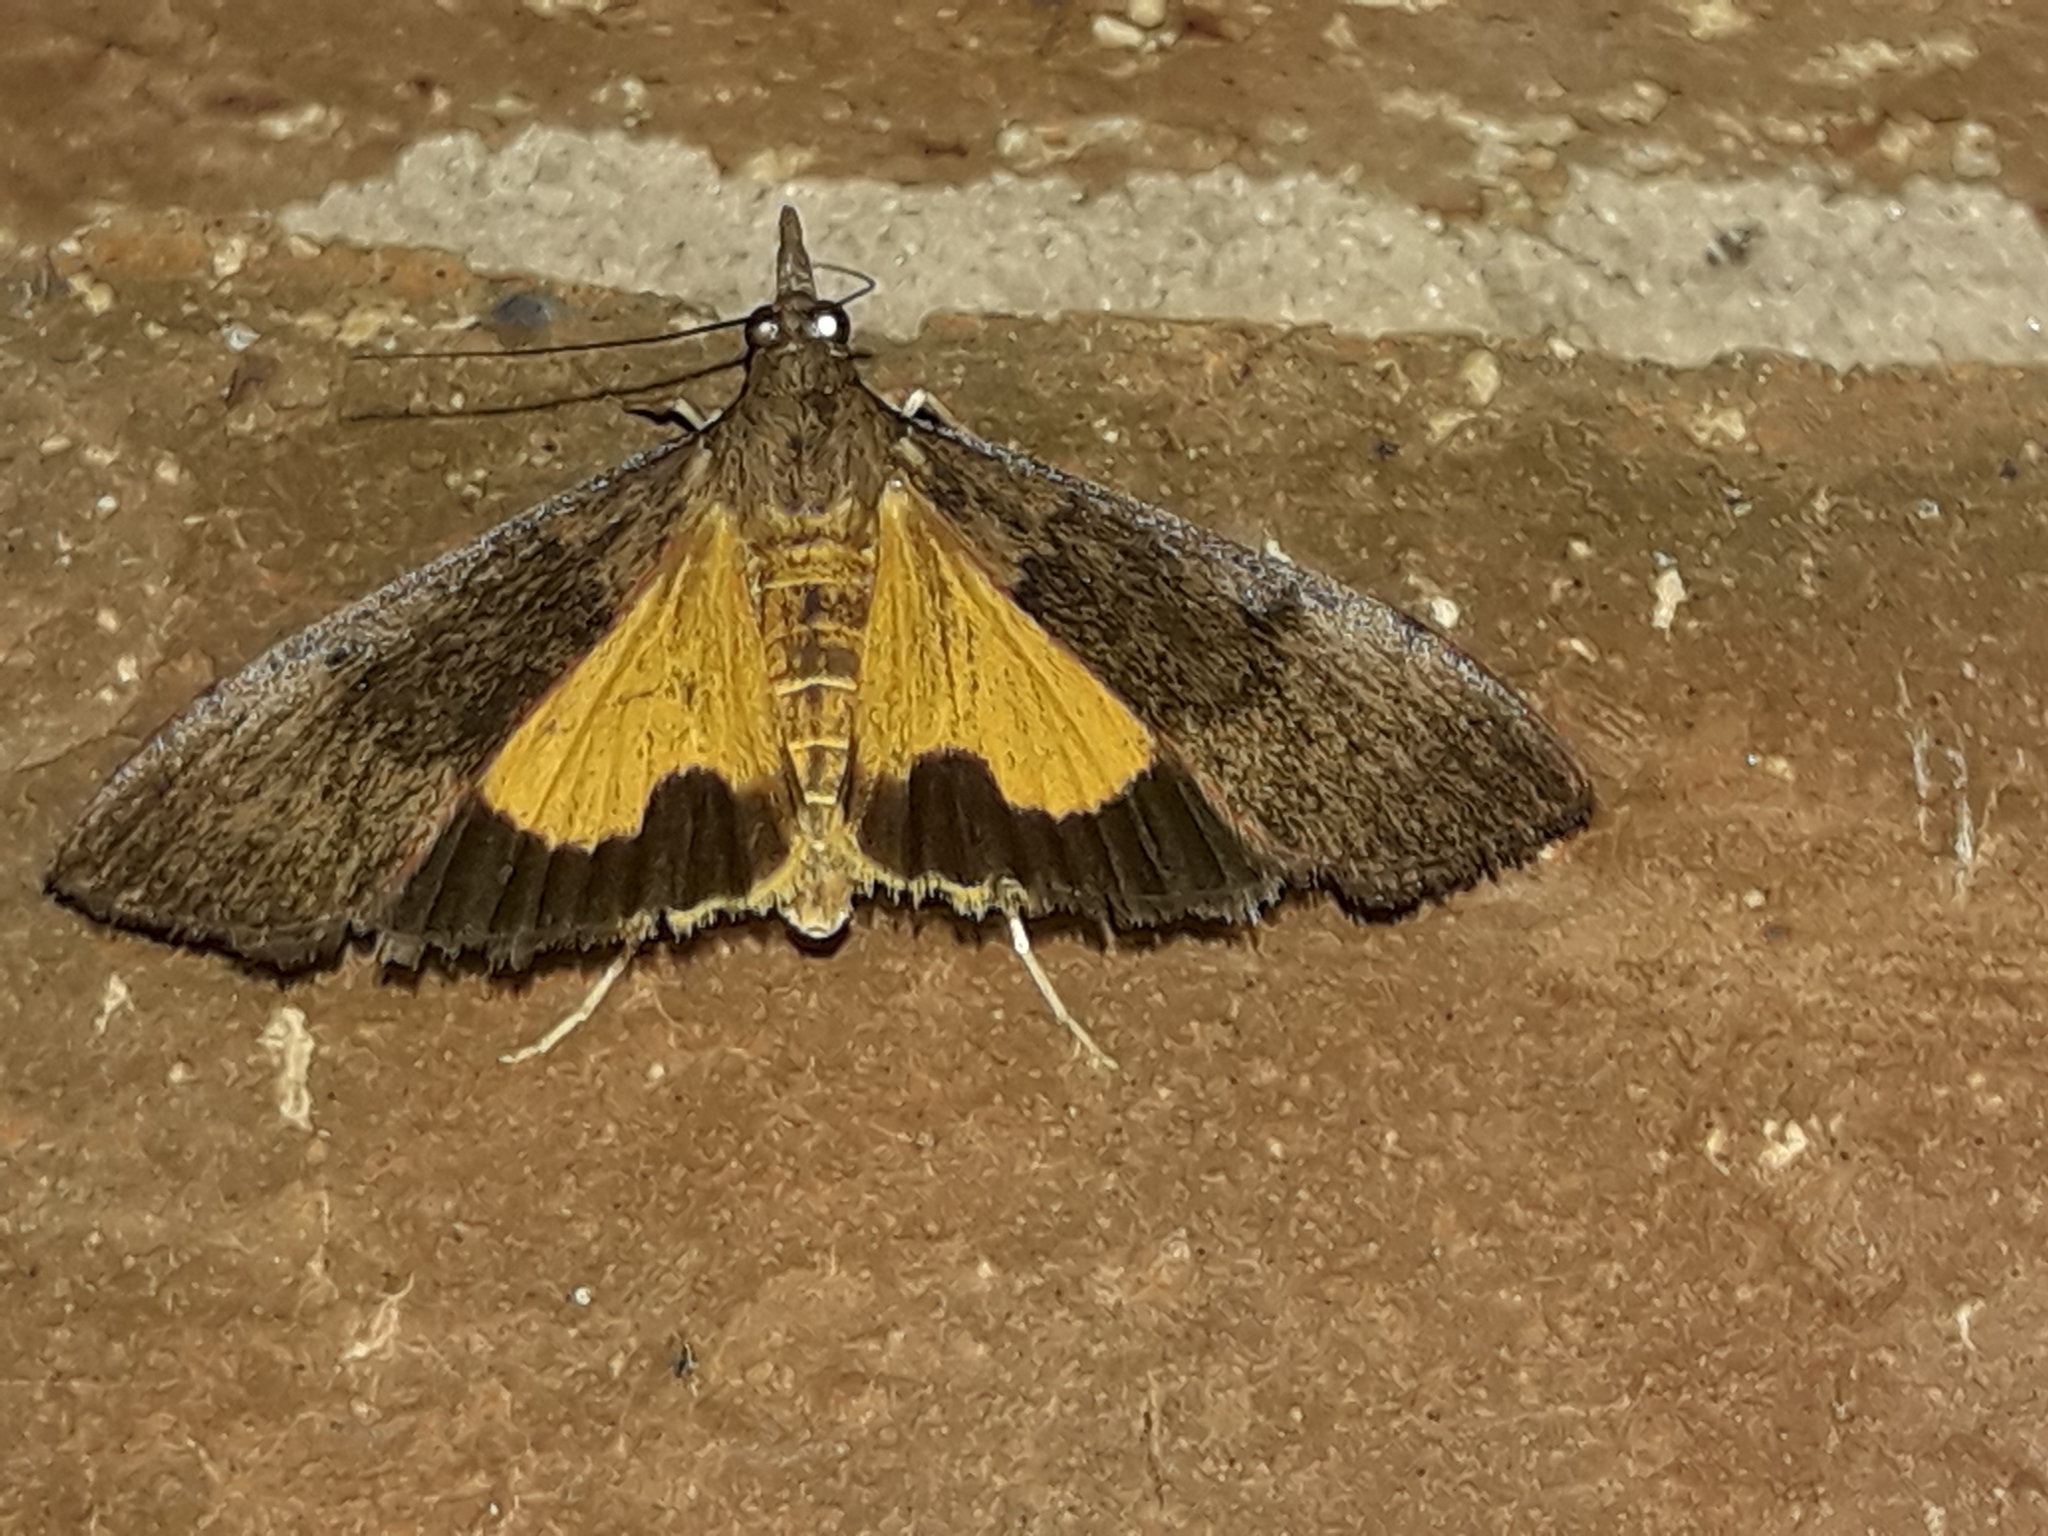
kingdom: Animalia
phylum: Arthropoda
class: Insecta
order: Lepidoptera
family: Crambidae
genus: Uresiphita
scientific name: Uresiphita ornithopteralis
